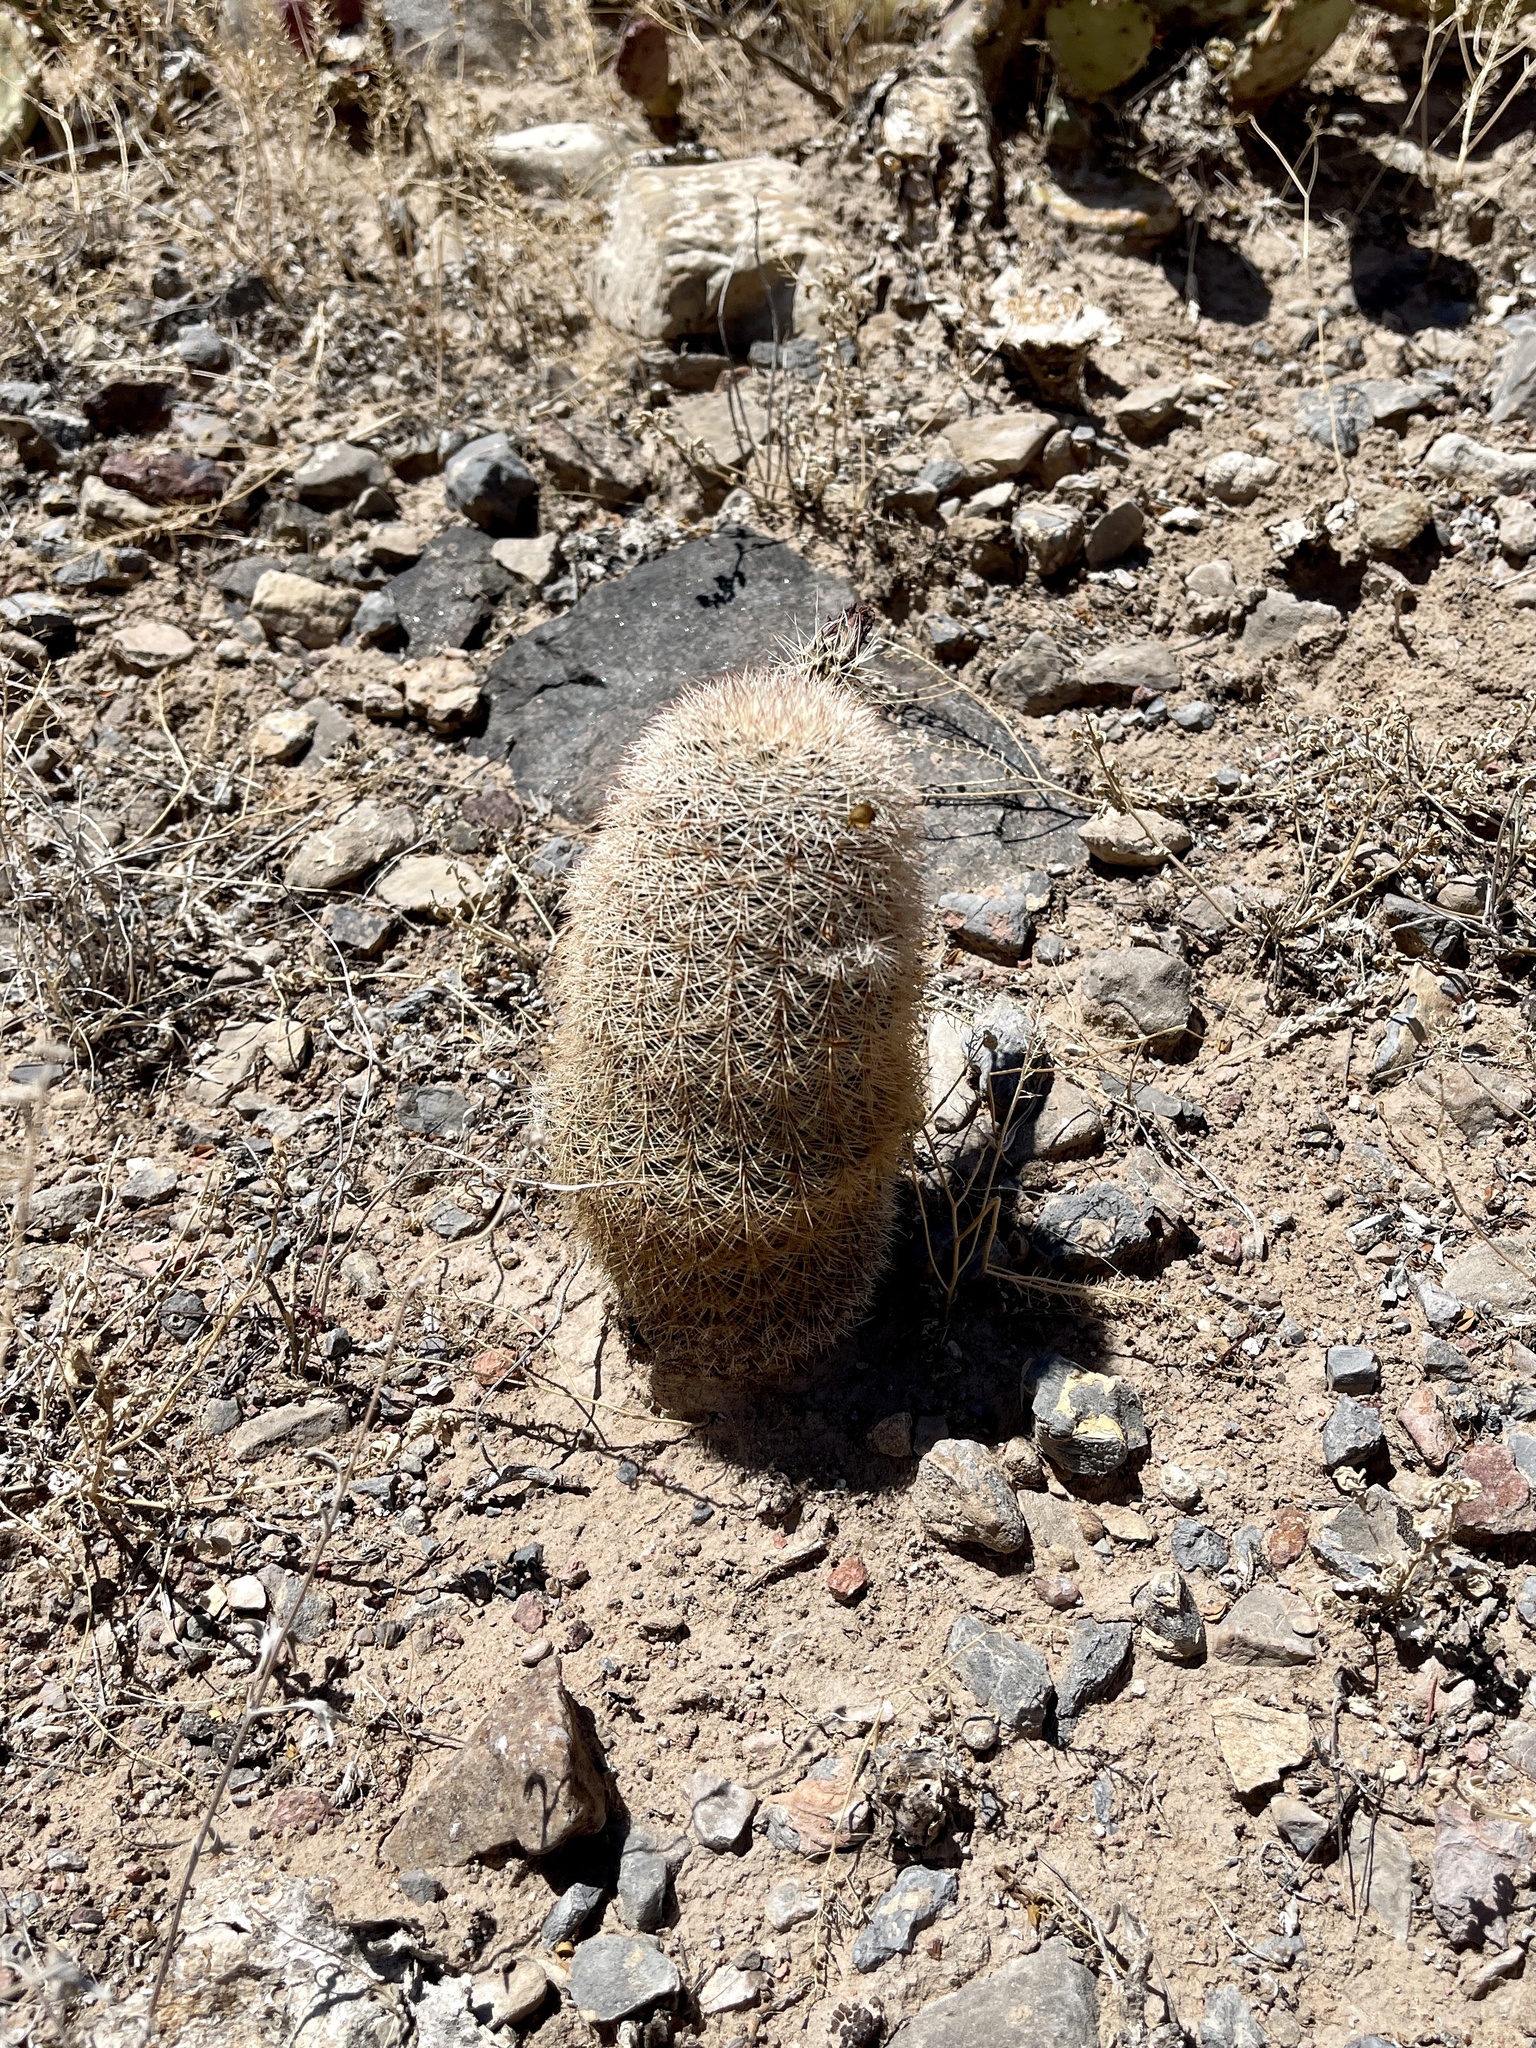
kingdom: Plantae
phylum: Tracheophyta
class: Magnoliopsida
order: Caryophyllales
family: Cactaceae
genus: Echinocereus
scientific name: Echinocereus dasyacanthus
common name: Spiny hedgehog cactus
